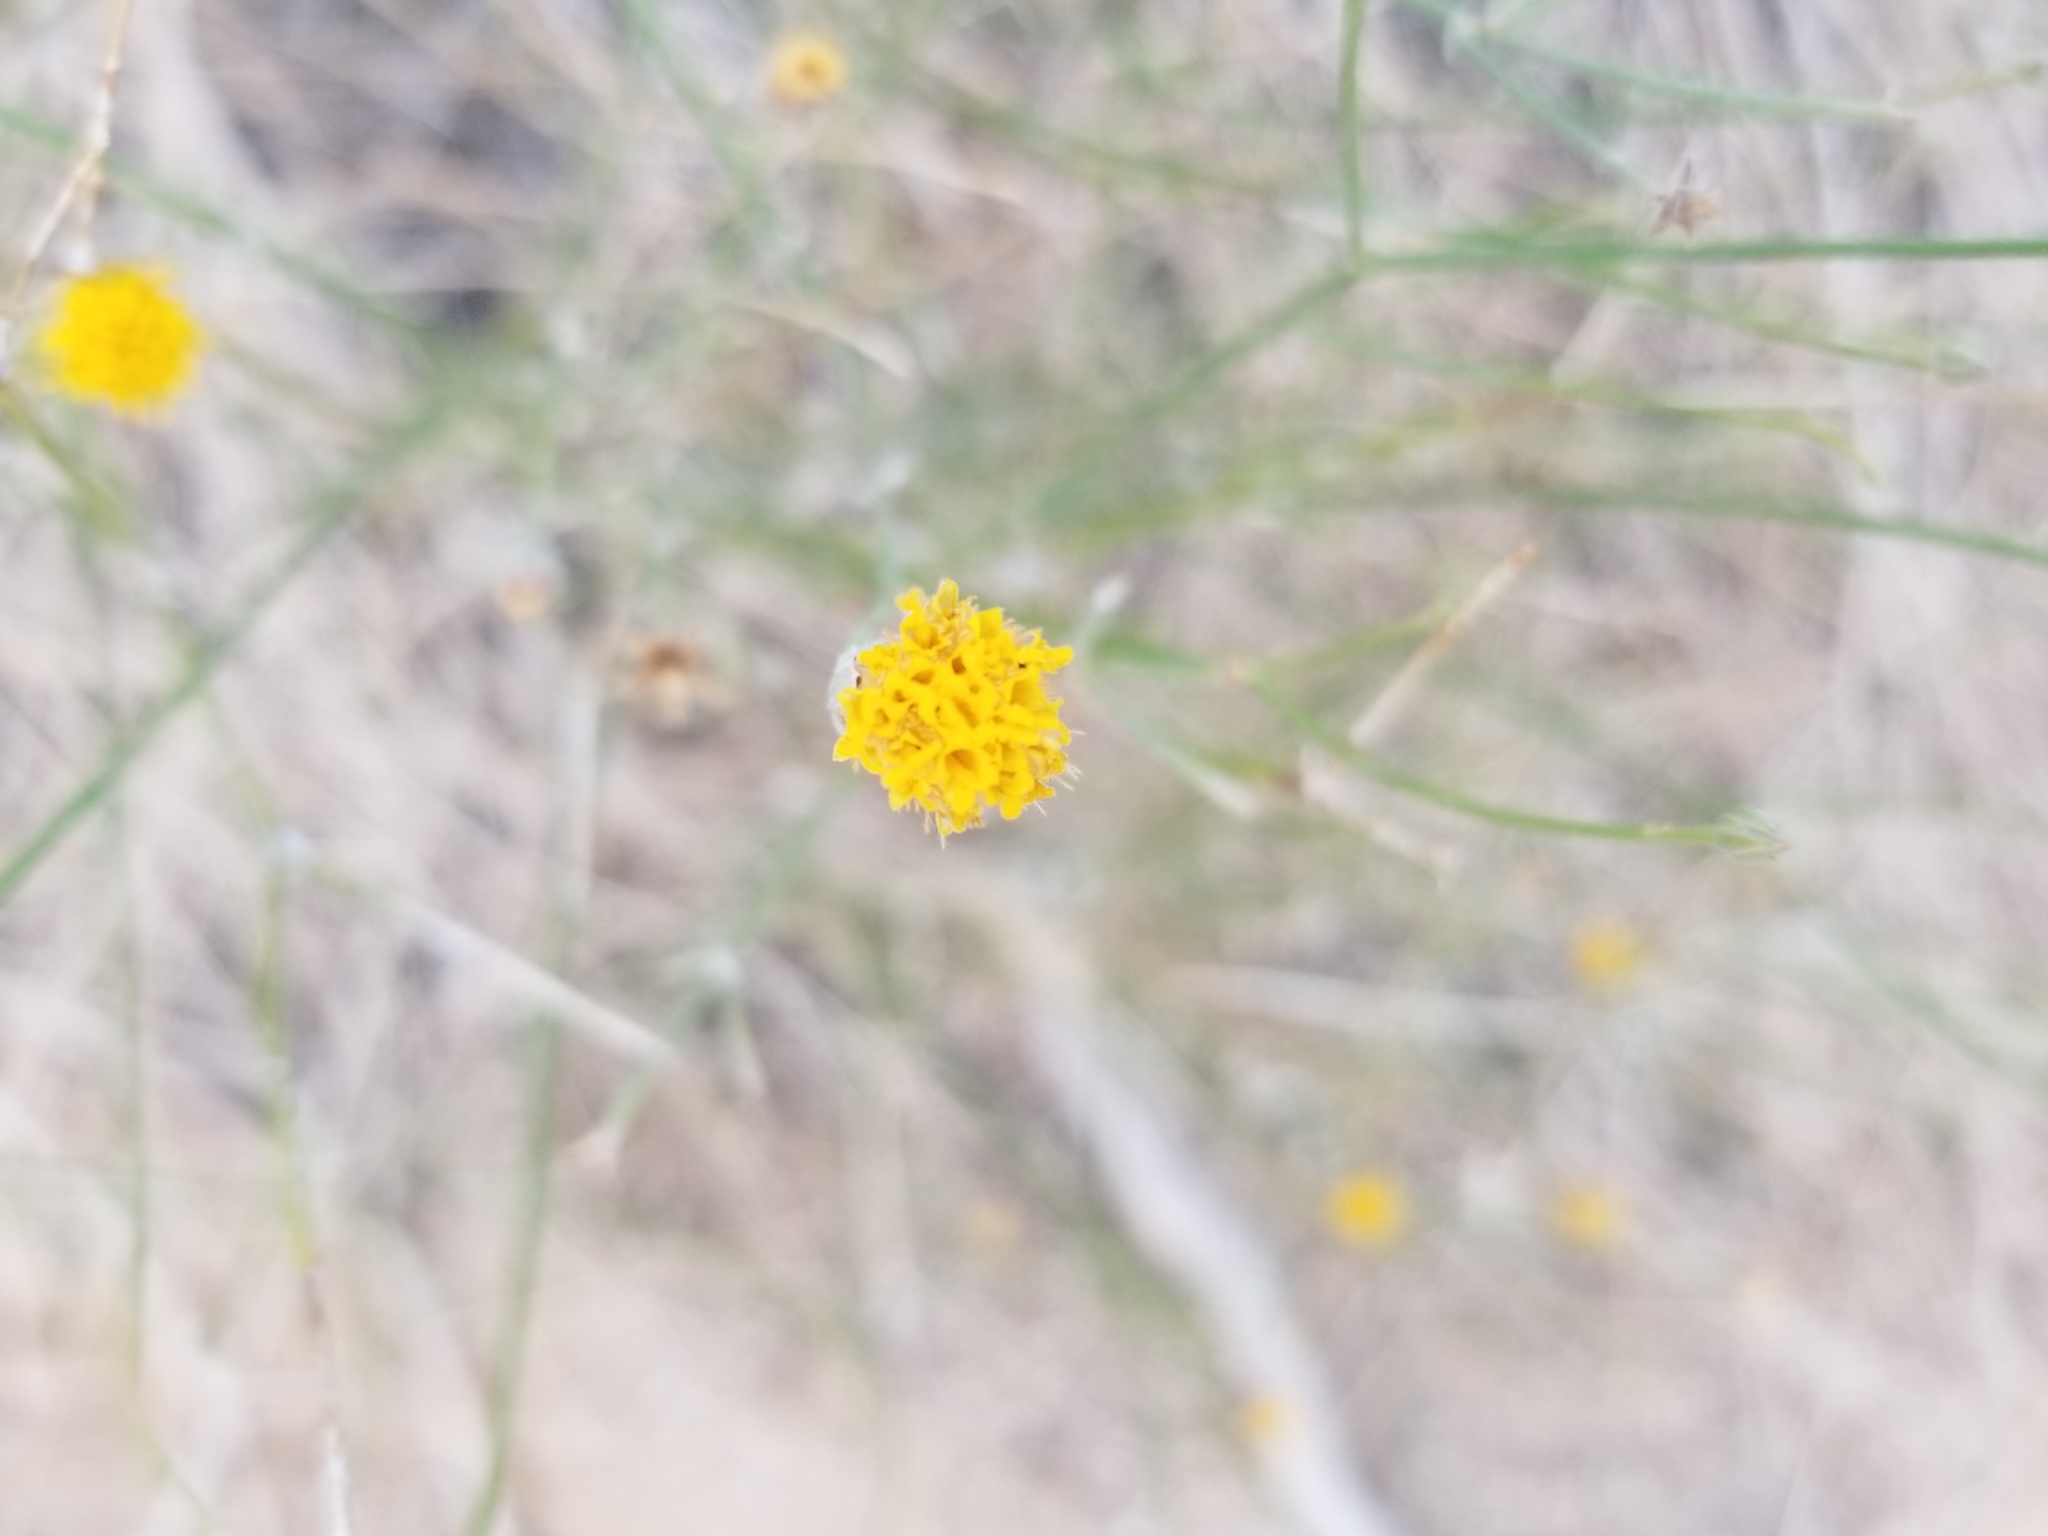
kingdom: Plantae
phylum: Tracheophyta
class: Magnoliopsida
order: Asterales
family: Asteraceae
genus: Bebbia
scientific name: Bebbia juncea
